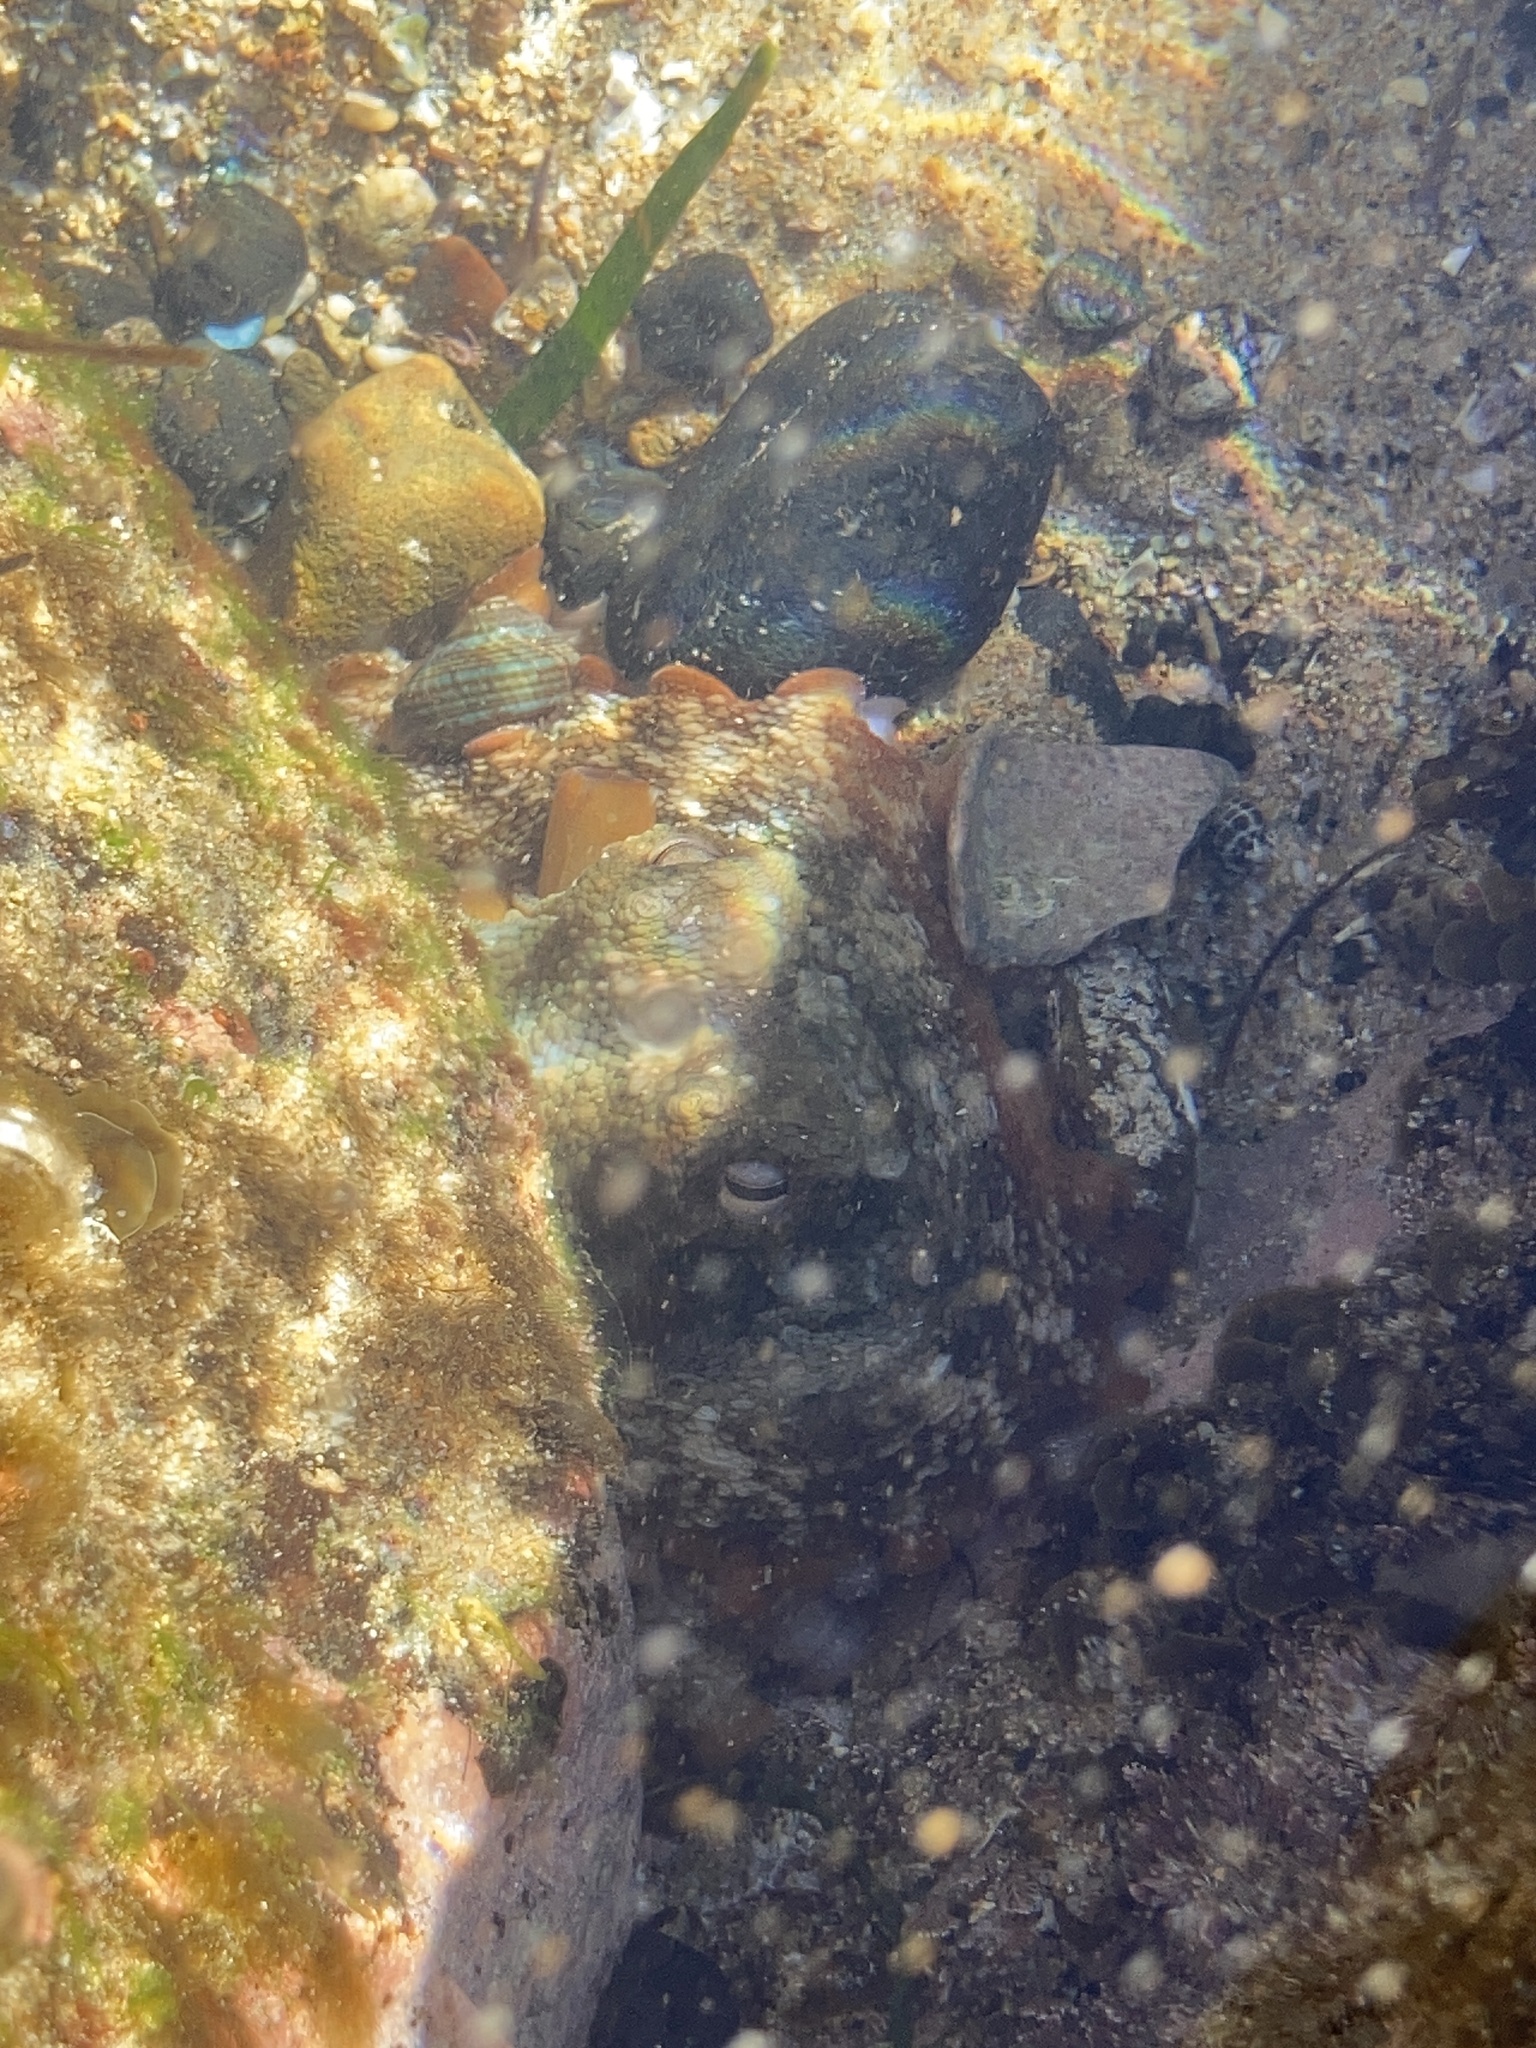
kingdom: Animalia
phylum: Mollusca
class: Cephalopoda
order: Octopoda
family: Octopodidae
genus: Octopus
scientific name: Octopus tetricus
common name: Sydney octopus
